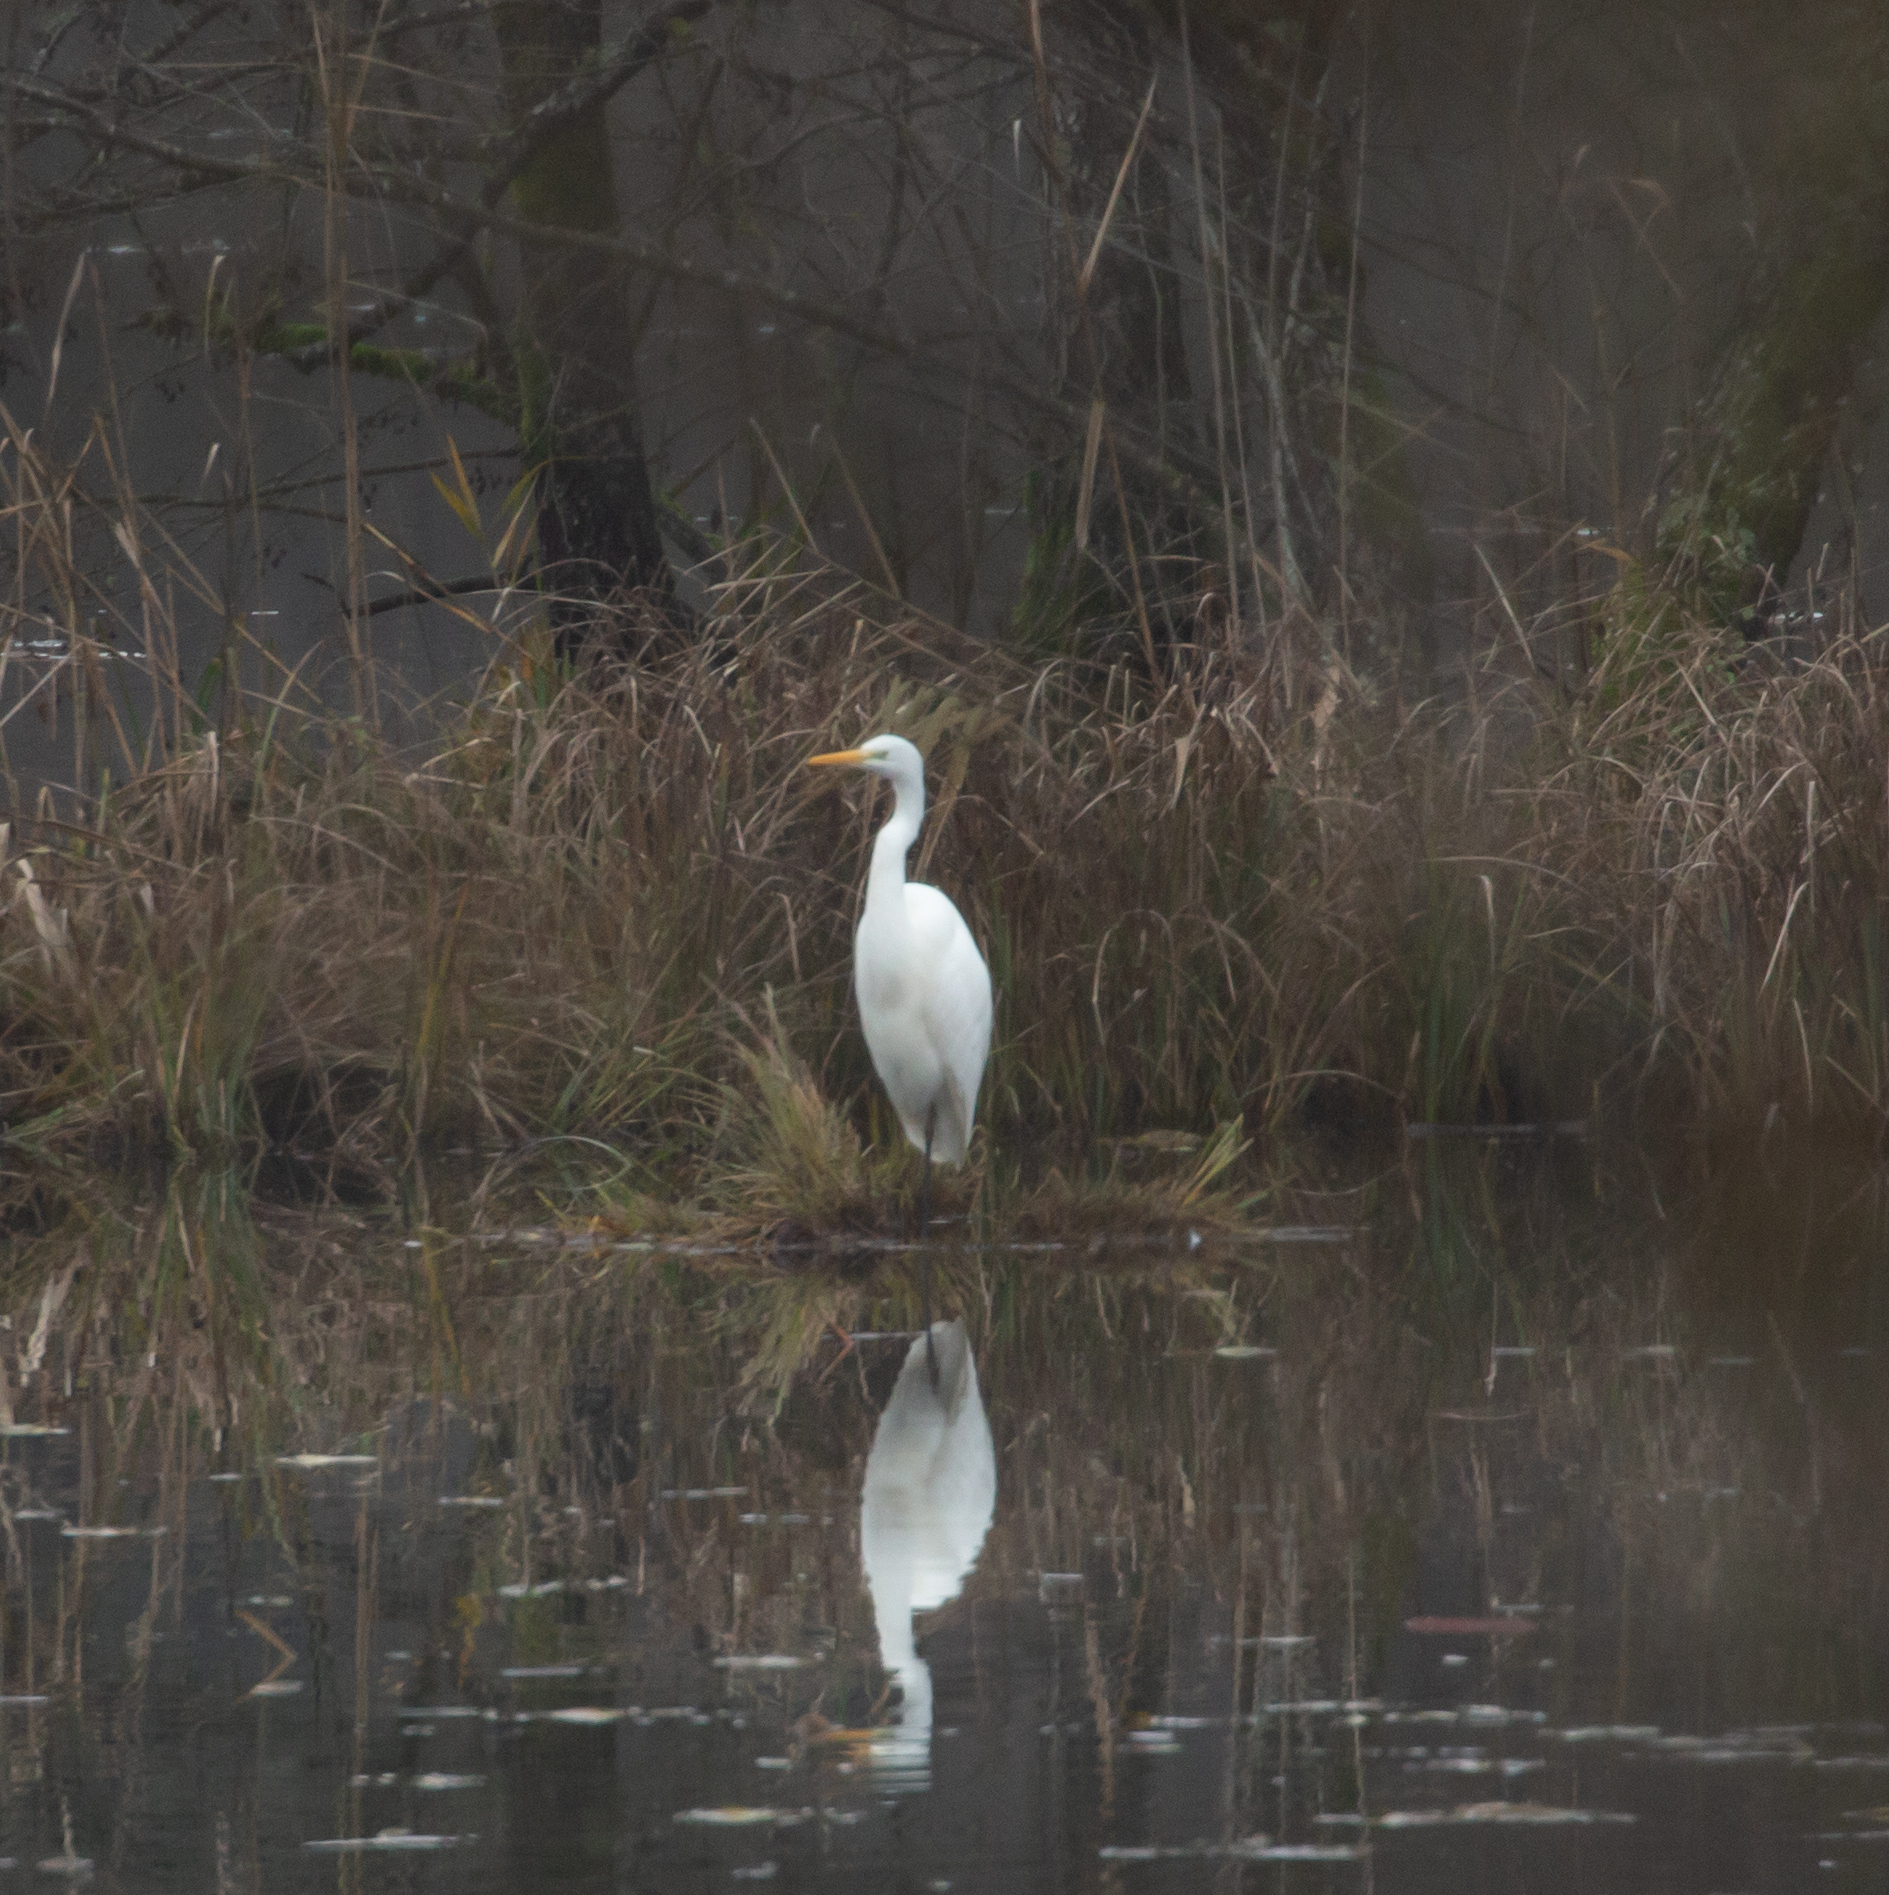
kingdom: Animalia
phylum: Chordata
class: Aves
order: Pelecaniformes
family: Ardeidae
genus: Ardea
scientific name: Ardea alba
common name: Great egret
